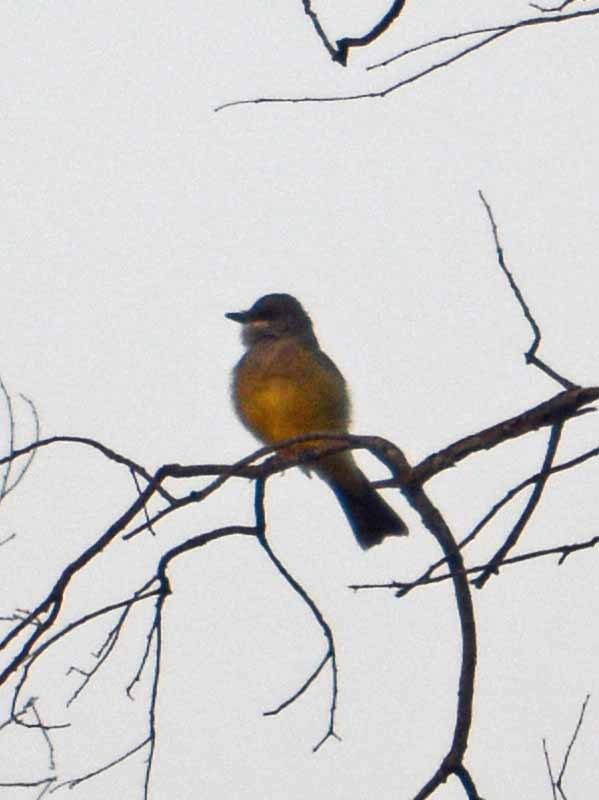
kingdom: Animalia
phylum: Chordata
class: Aves
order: Passeriformes
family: Tyrannidae
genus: Tyrannus
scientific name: Tyrannus vociferans
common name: Cassin's kingbird
